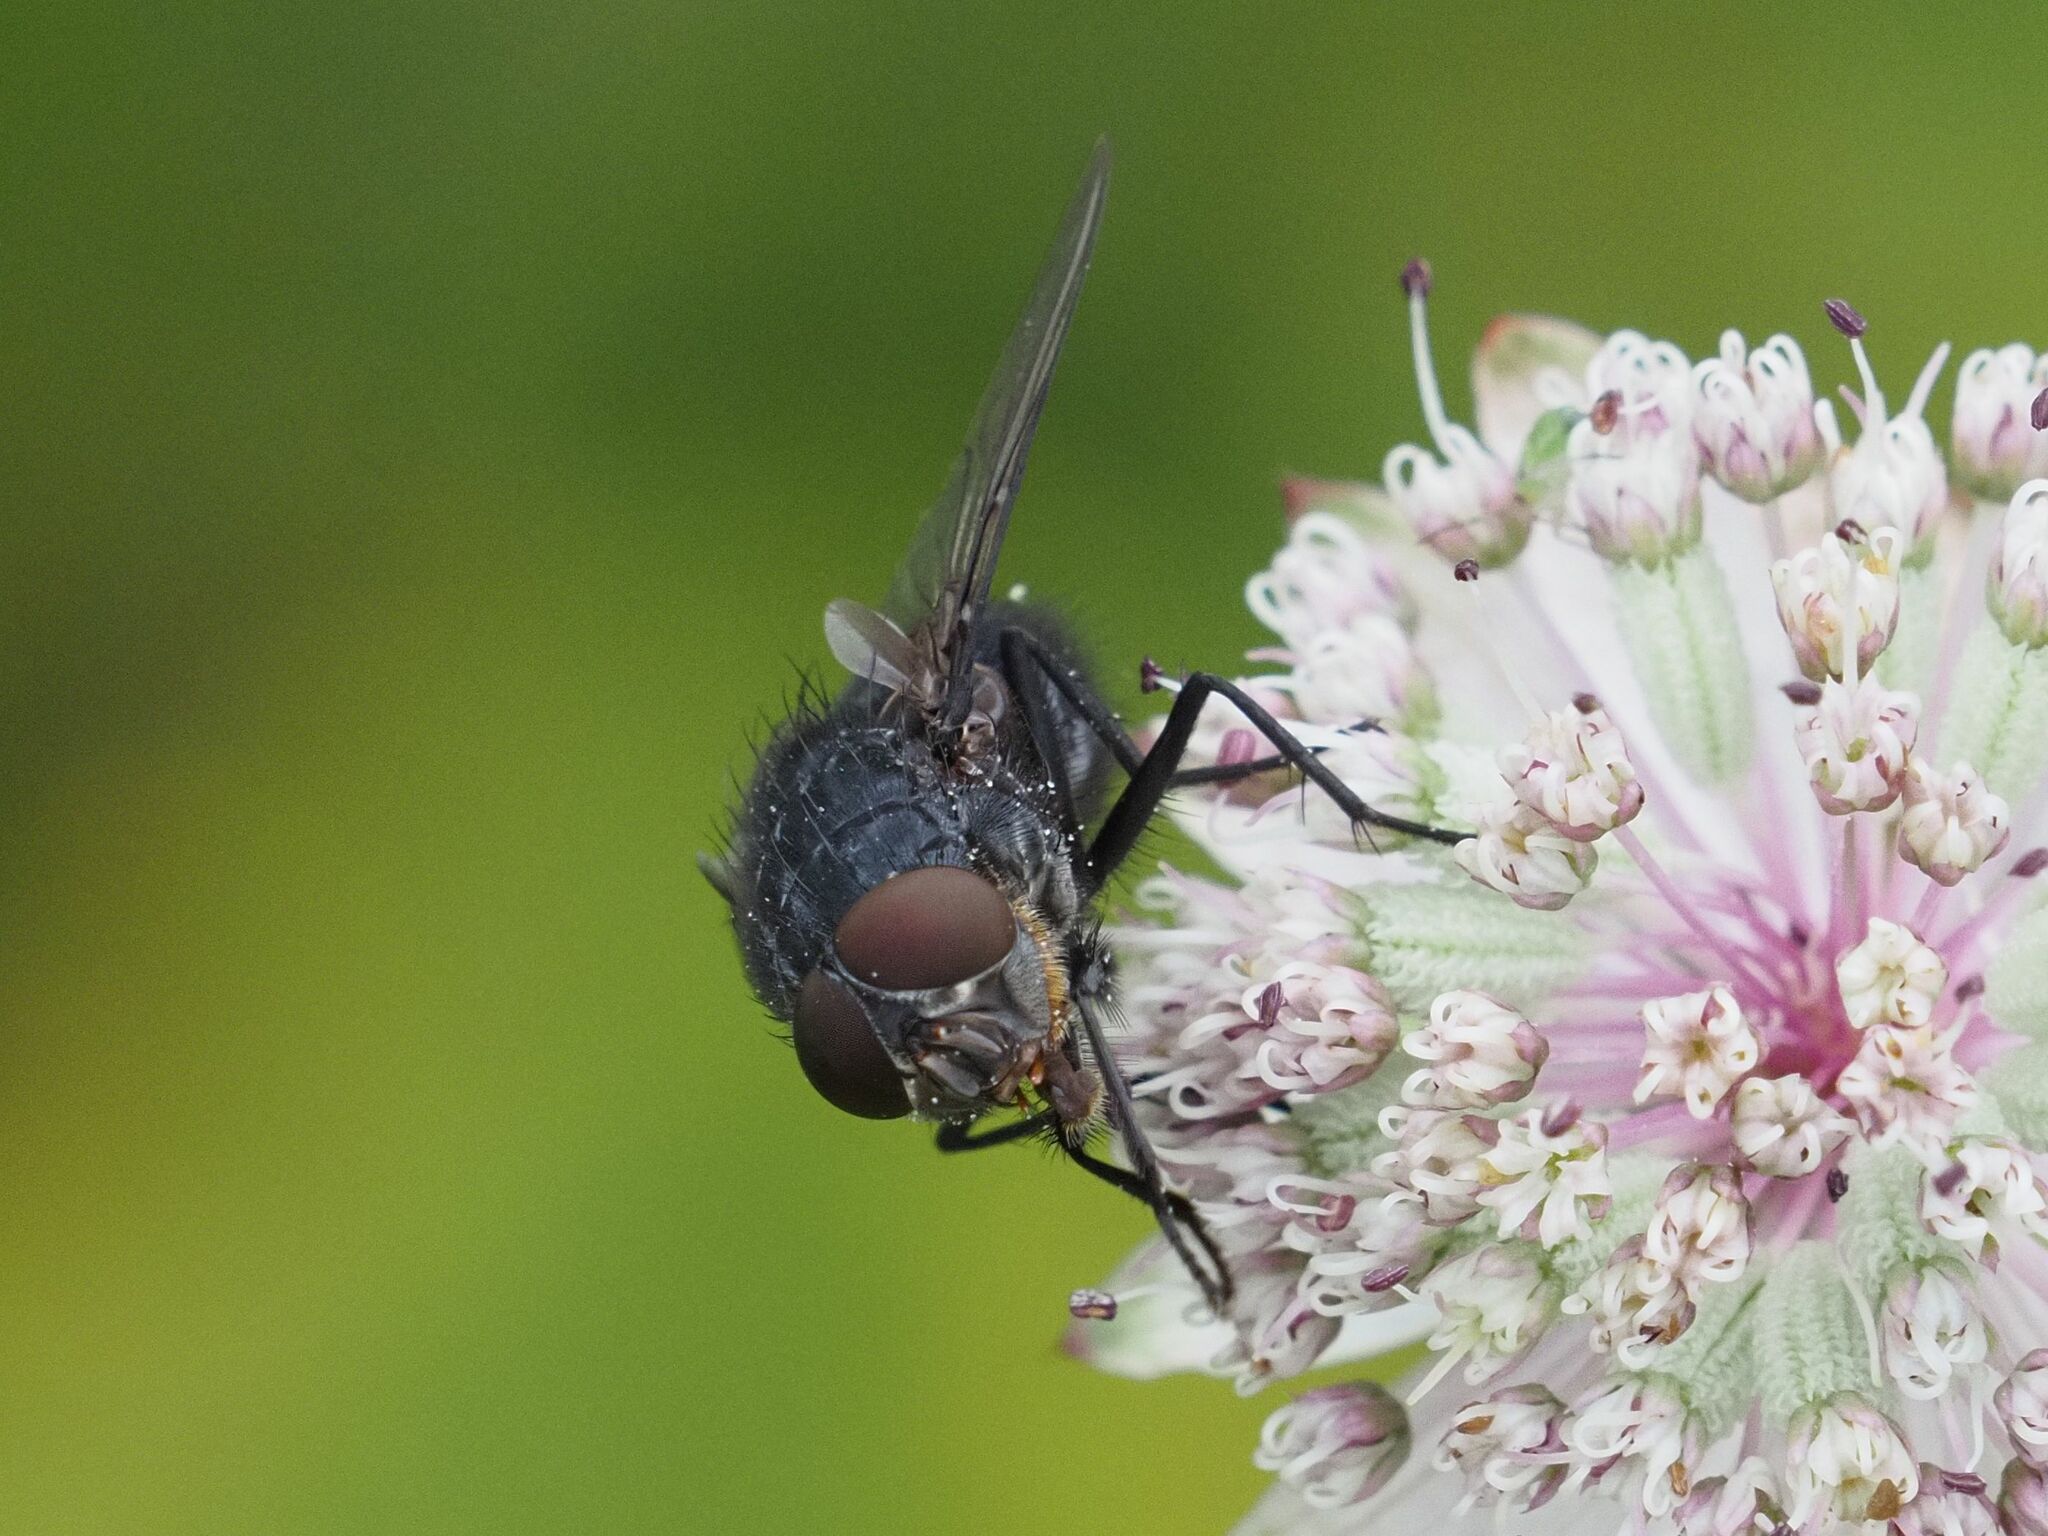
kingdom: Animalia
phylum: Arthropoda
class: Insecta
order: Diptera
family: Calliphoridae
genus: Calliphora
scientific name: Calliphora vomitoria
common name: Blue bottle fly
